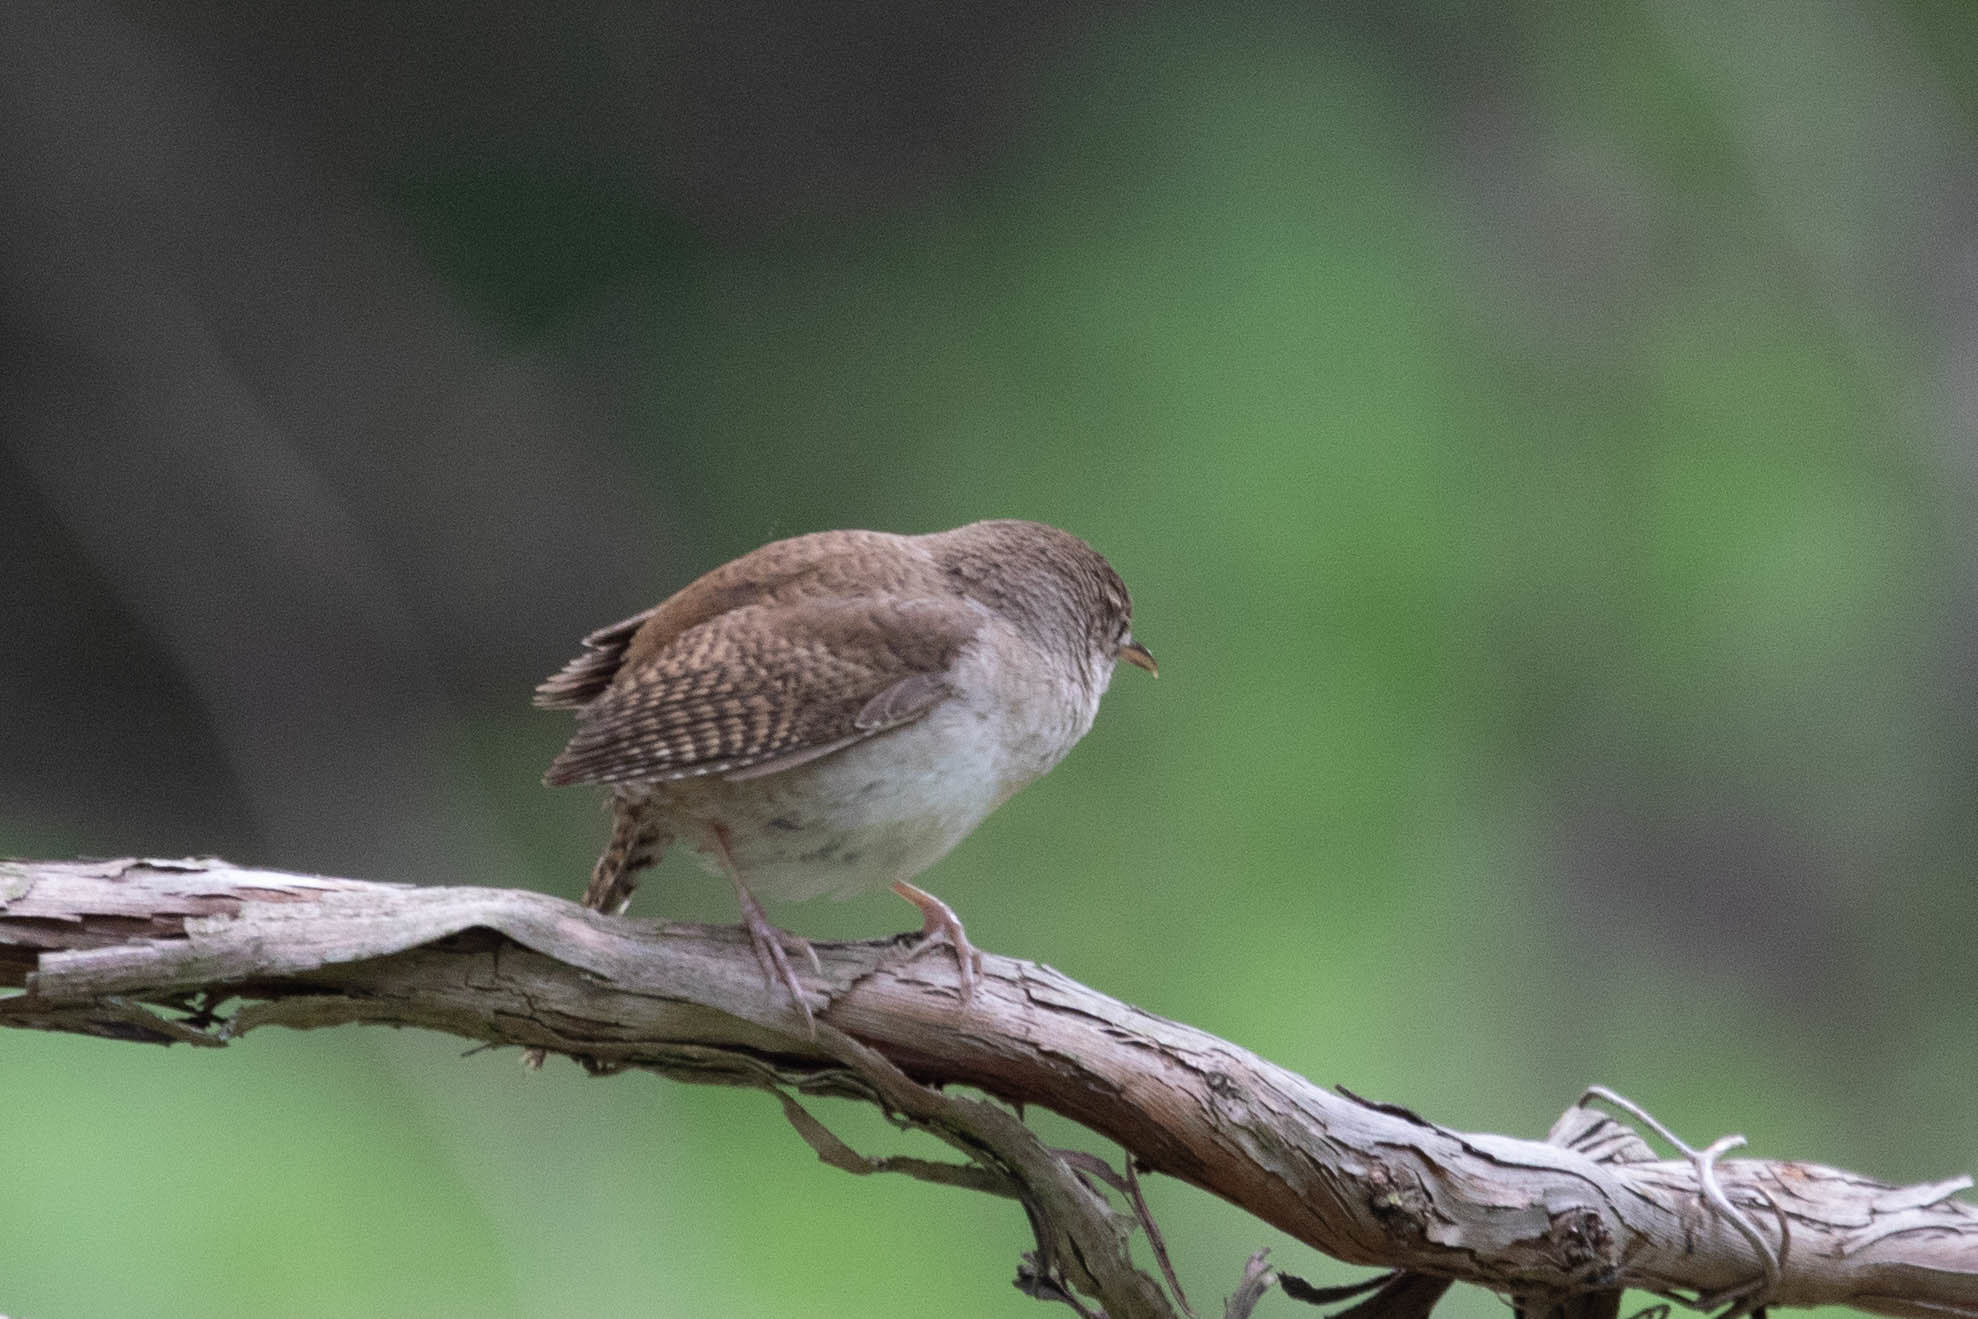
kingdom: Animalia
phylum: Chordata
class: Aves
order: Passeriformes
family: Troglodytidae
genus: Troglodytes
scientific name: Troglodytes aedon
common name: House wren
